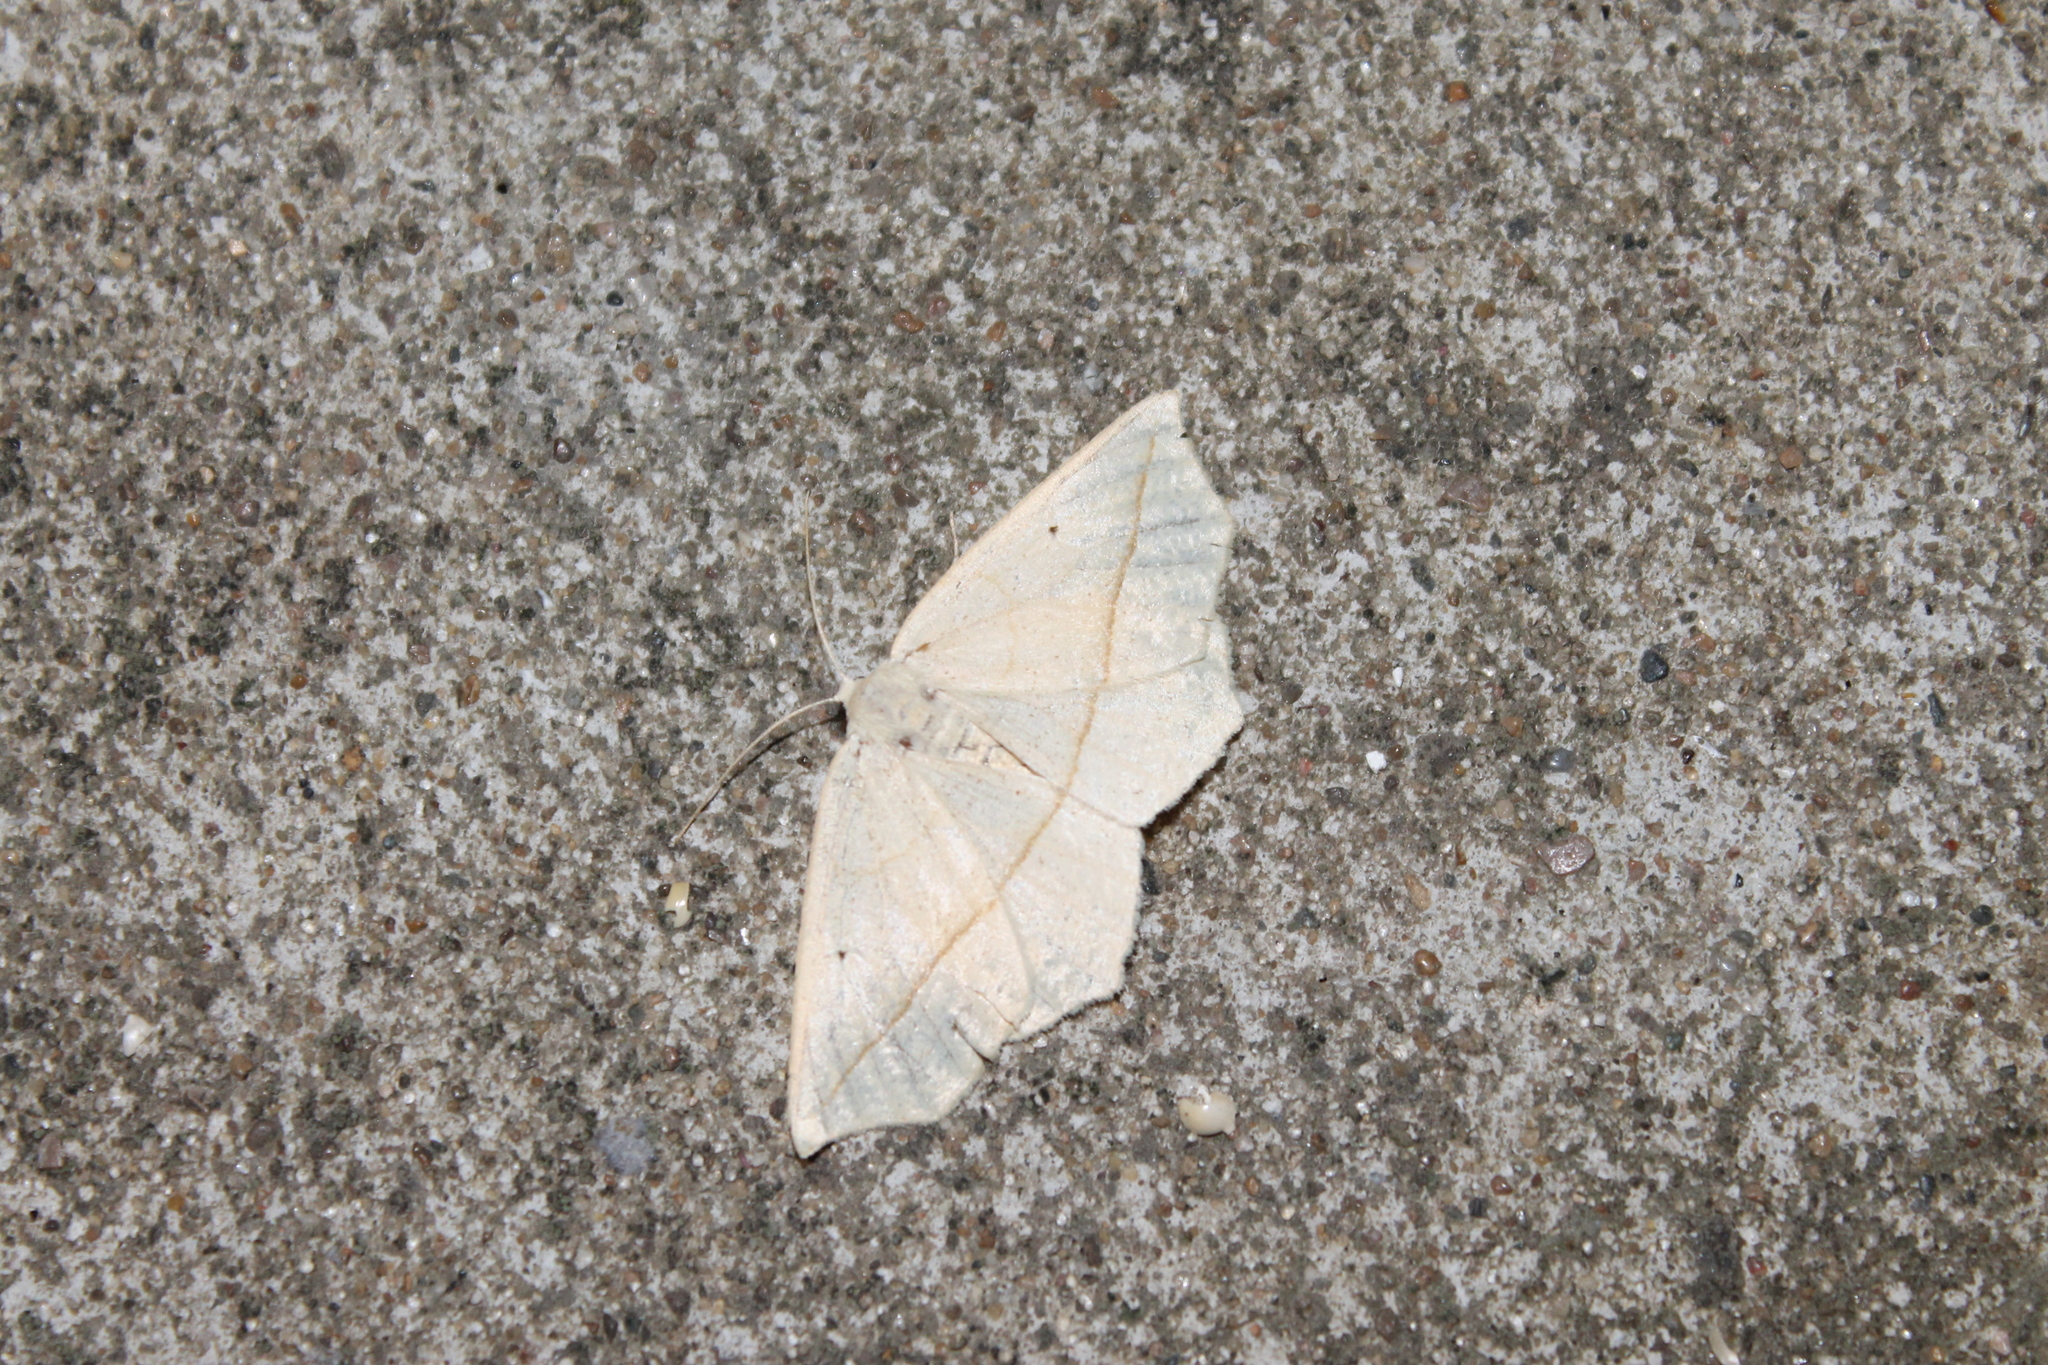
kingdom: Animalia
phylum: Arthropoda
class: Insecta
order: Lepidoptera
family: Geometridae
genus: Eusarca
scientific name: Eusarca confusaria
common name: Confused eusarca
